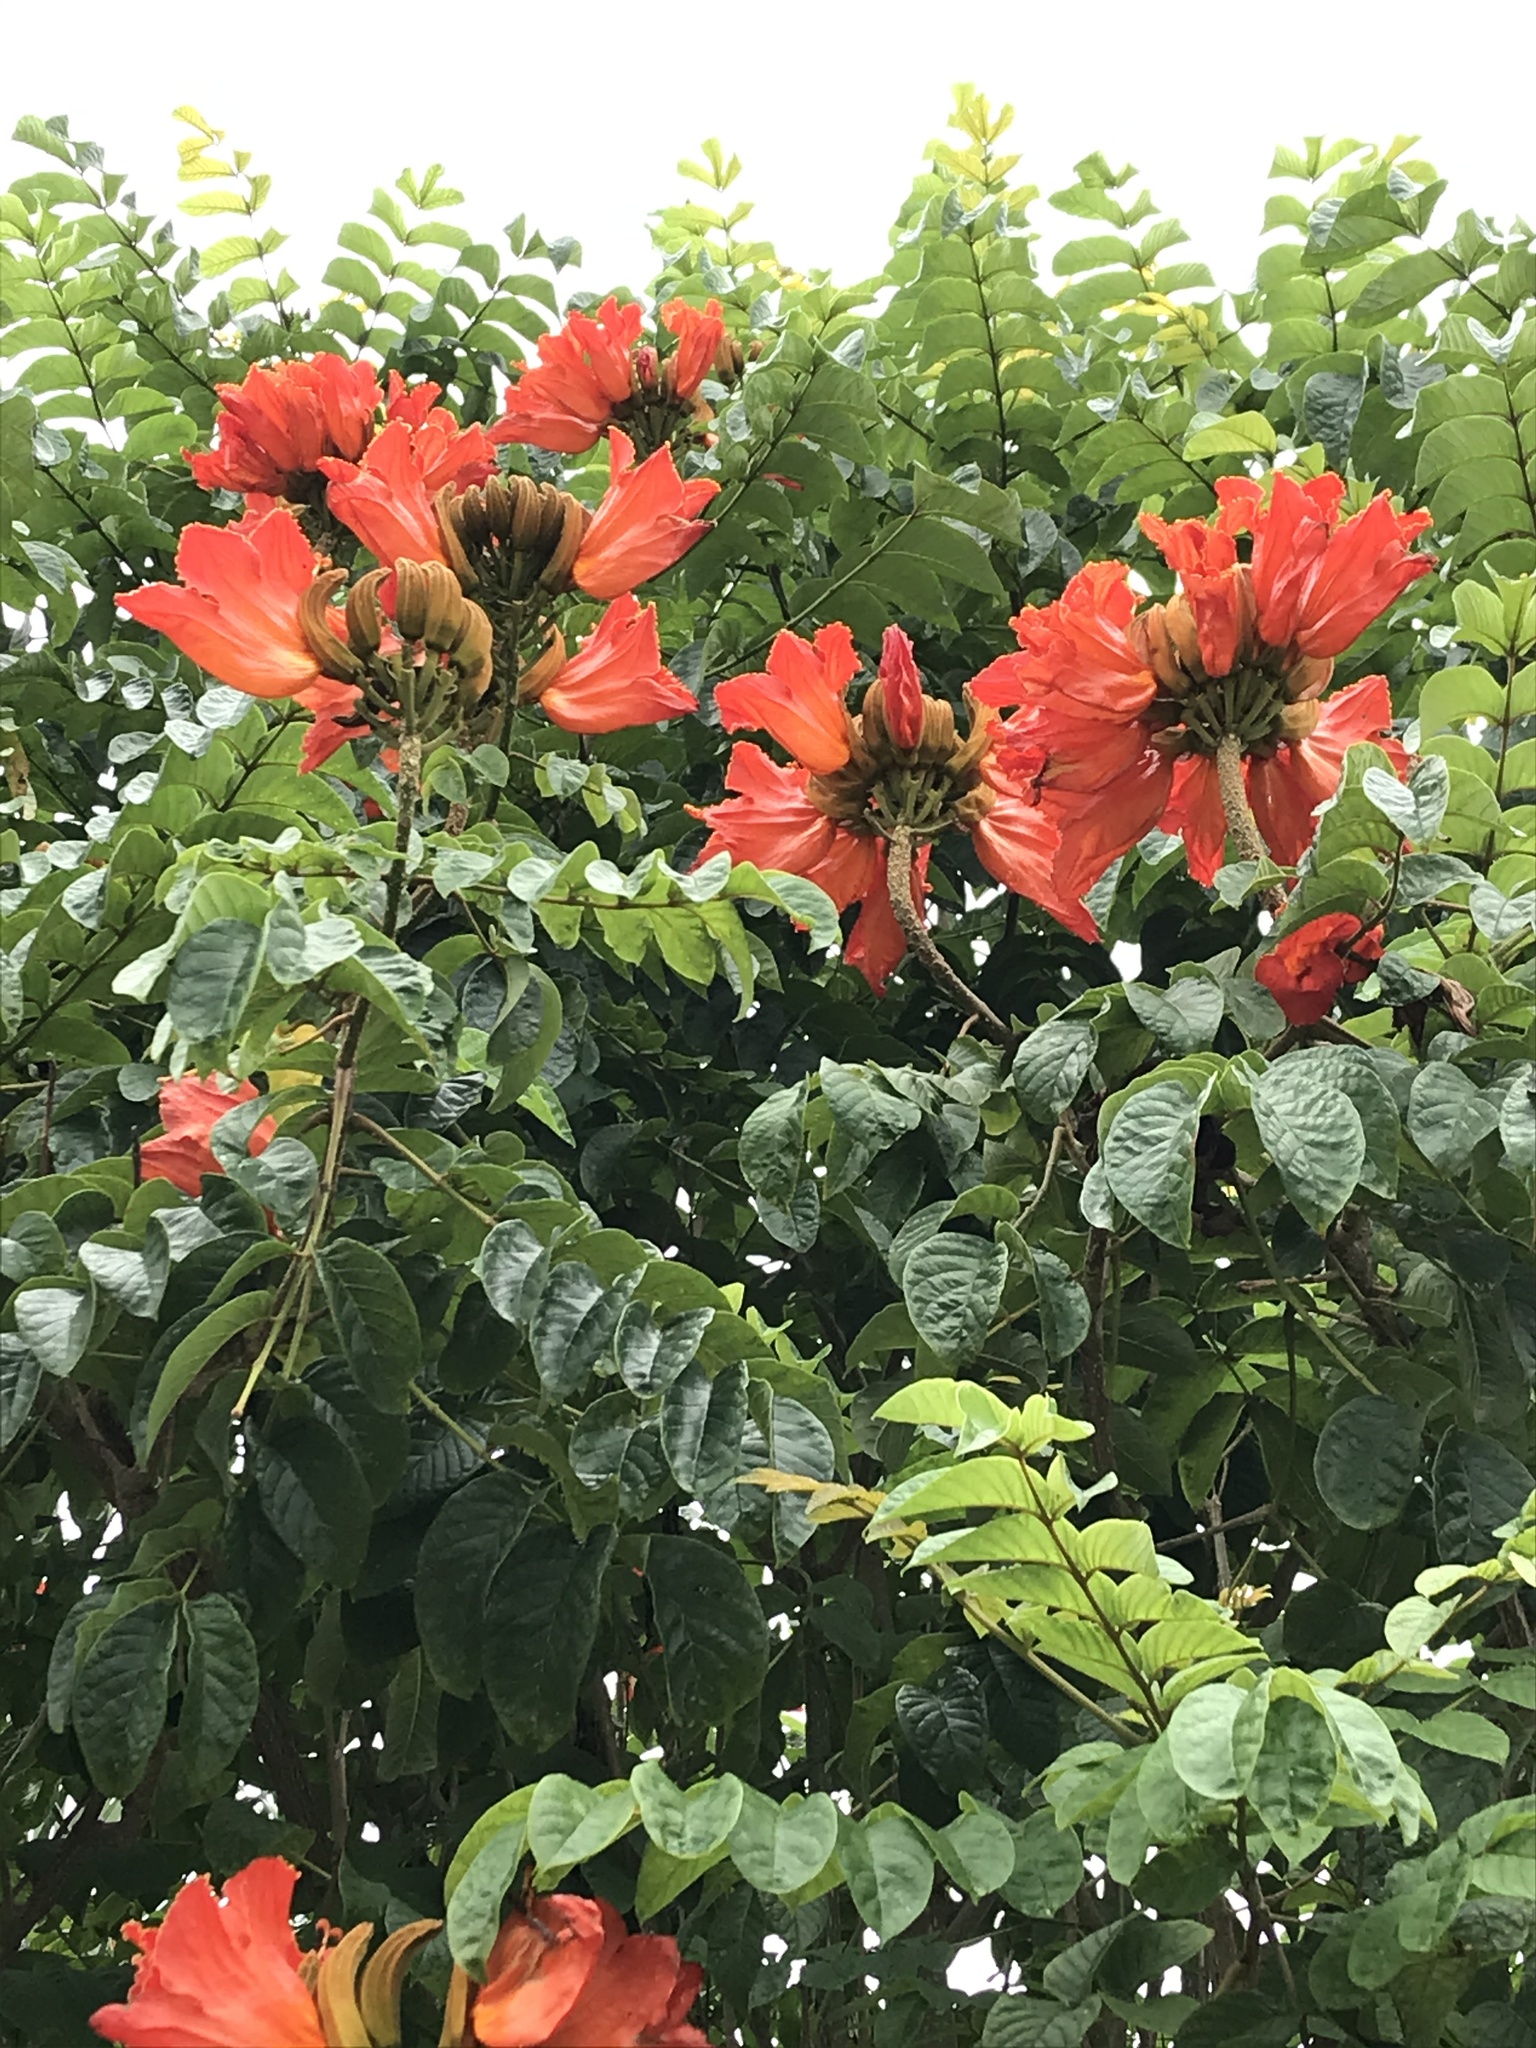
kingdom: Plantae
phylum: Tracheophyta
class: Magnoliopsida
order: Lamiales
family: Bignoniaceae
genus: Spathodea
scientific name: Spathodea campanulata
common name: African tuliptree
